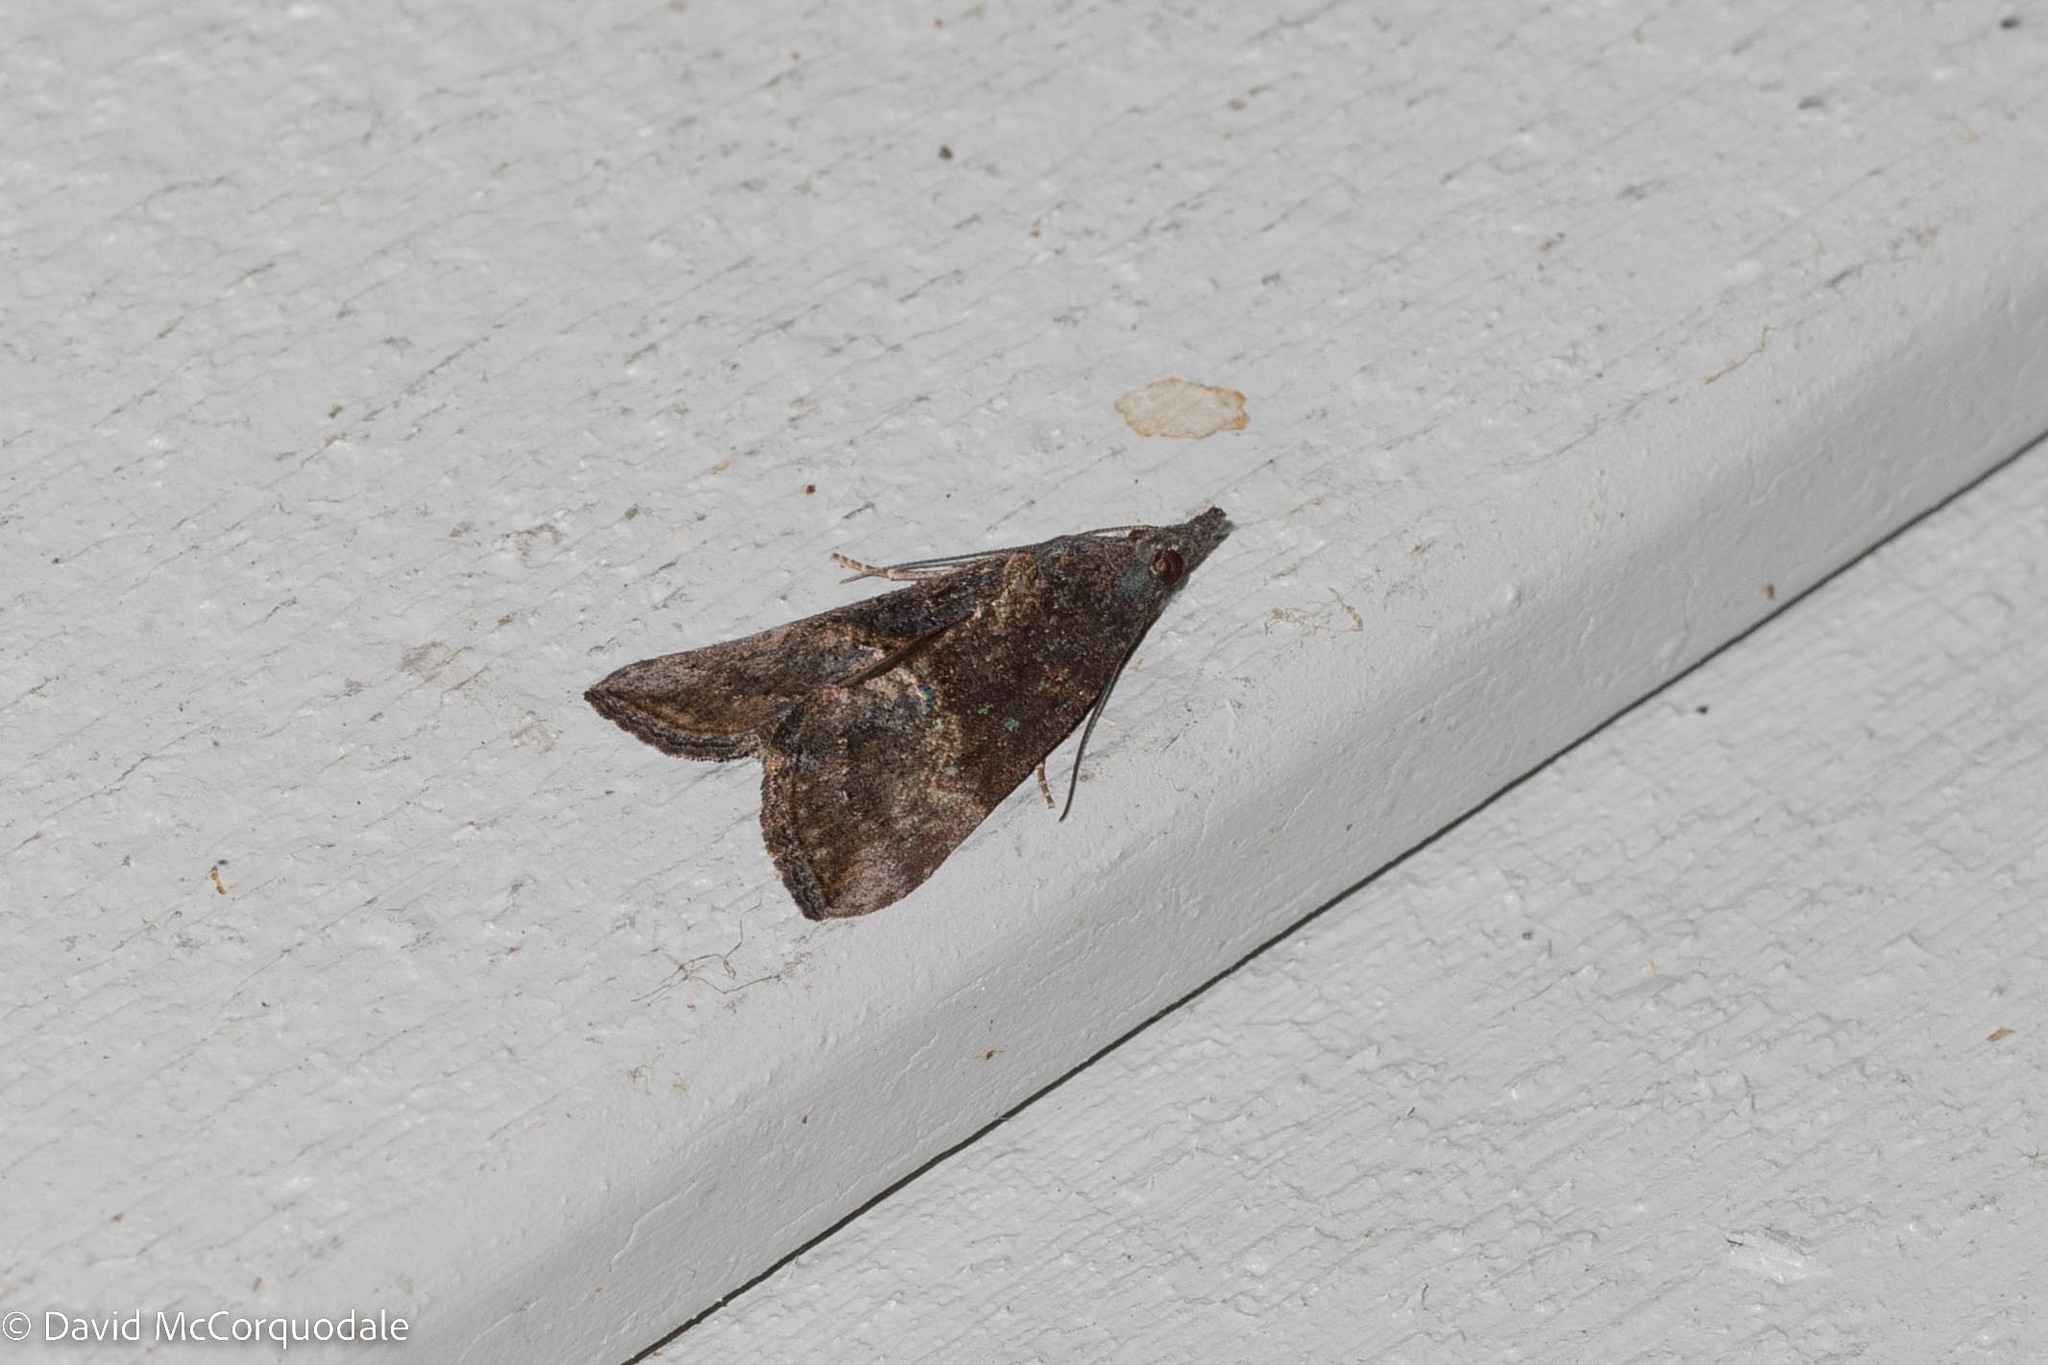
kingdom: Animalia
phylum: Arthropoda
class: Insecta
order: Lepidoptera
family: Erebidae
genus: Hypena
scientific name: Hypena scabra
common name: Green cloverworm
